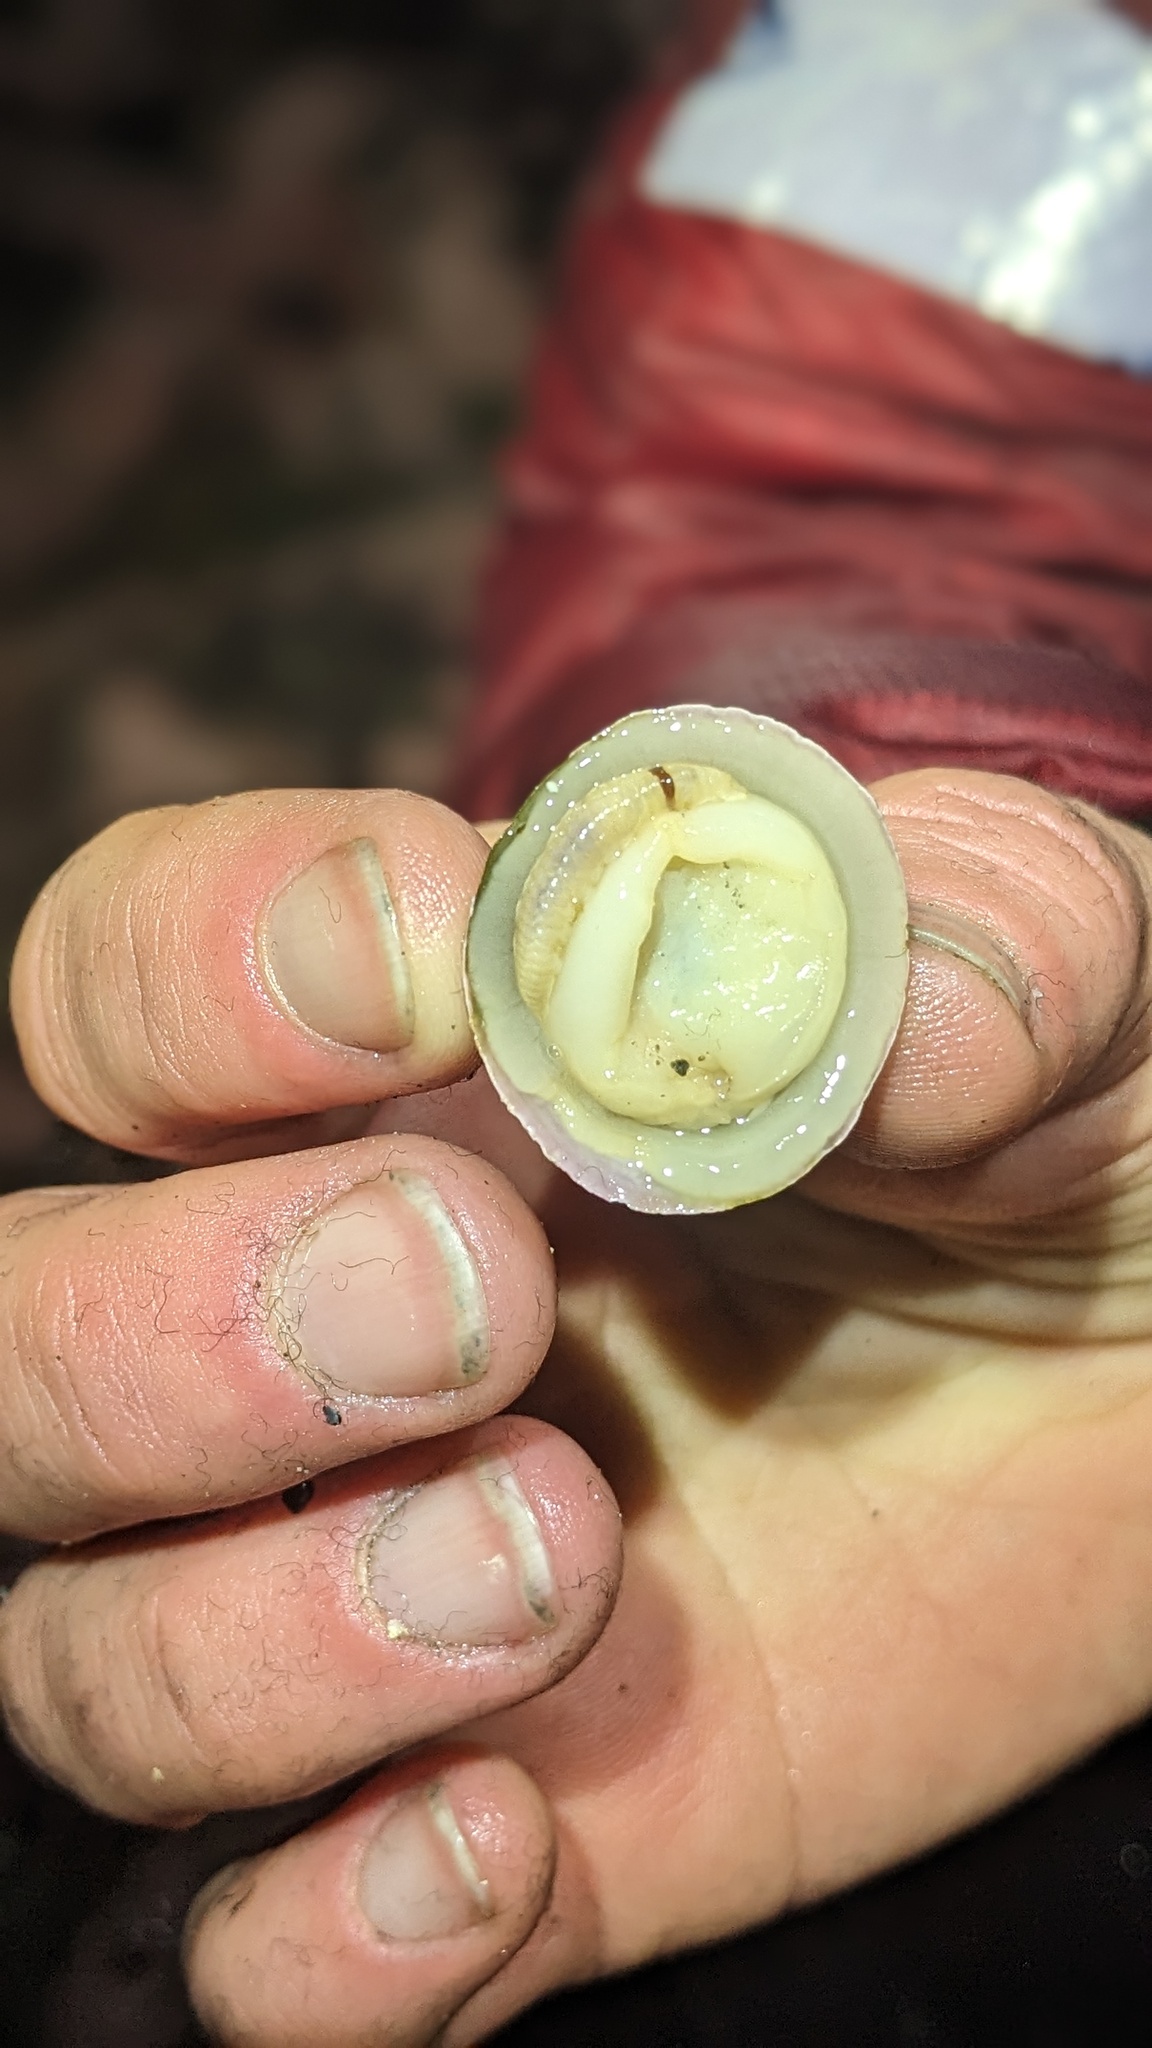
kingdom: Animalia
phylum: Annelida
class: Polychaeta
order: Phyllodocida
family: Polynoidae
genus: Arctonoe
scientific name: Arctonoe vittata
